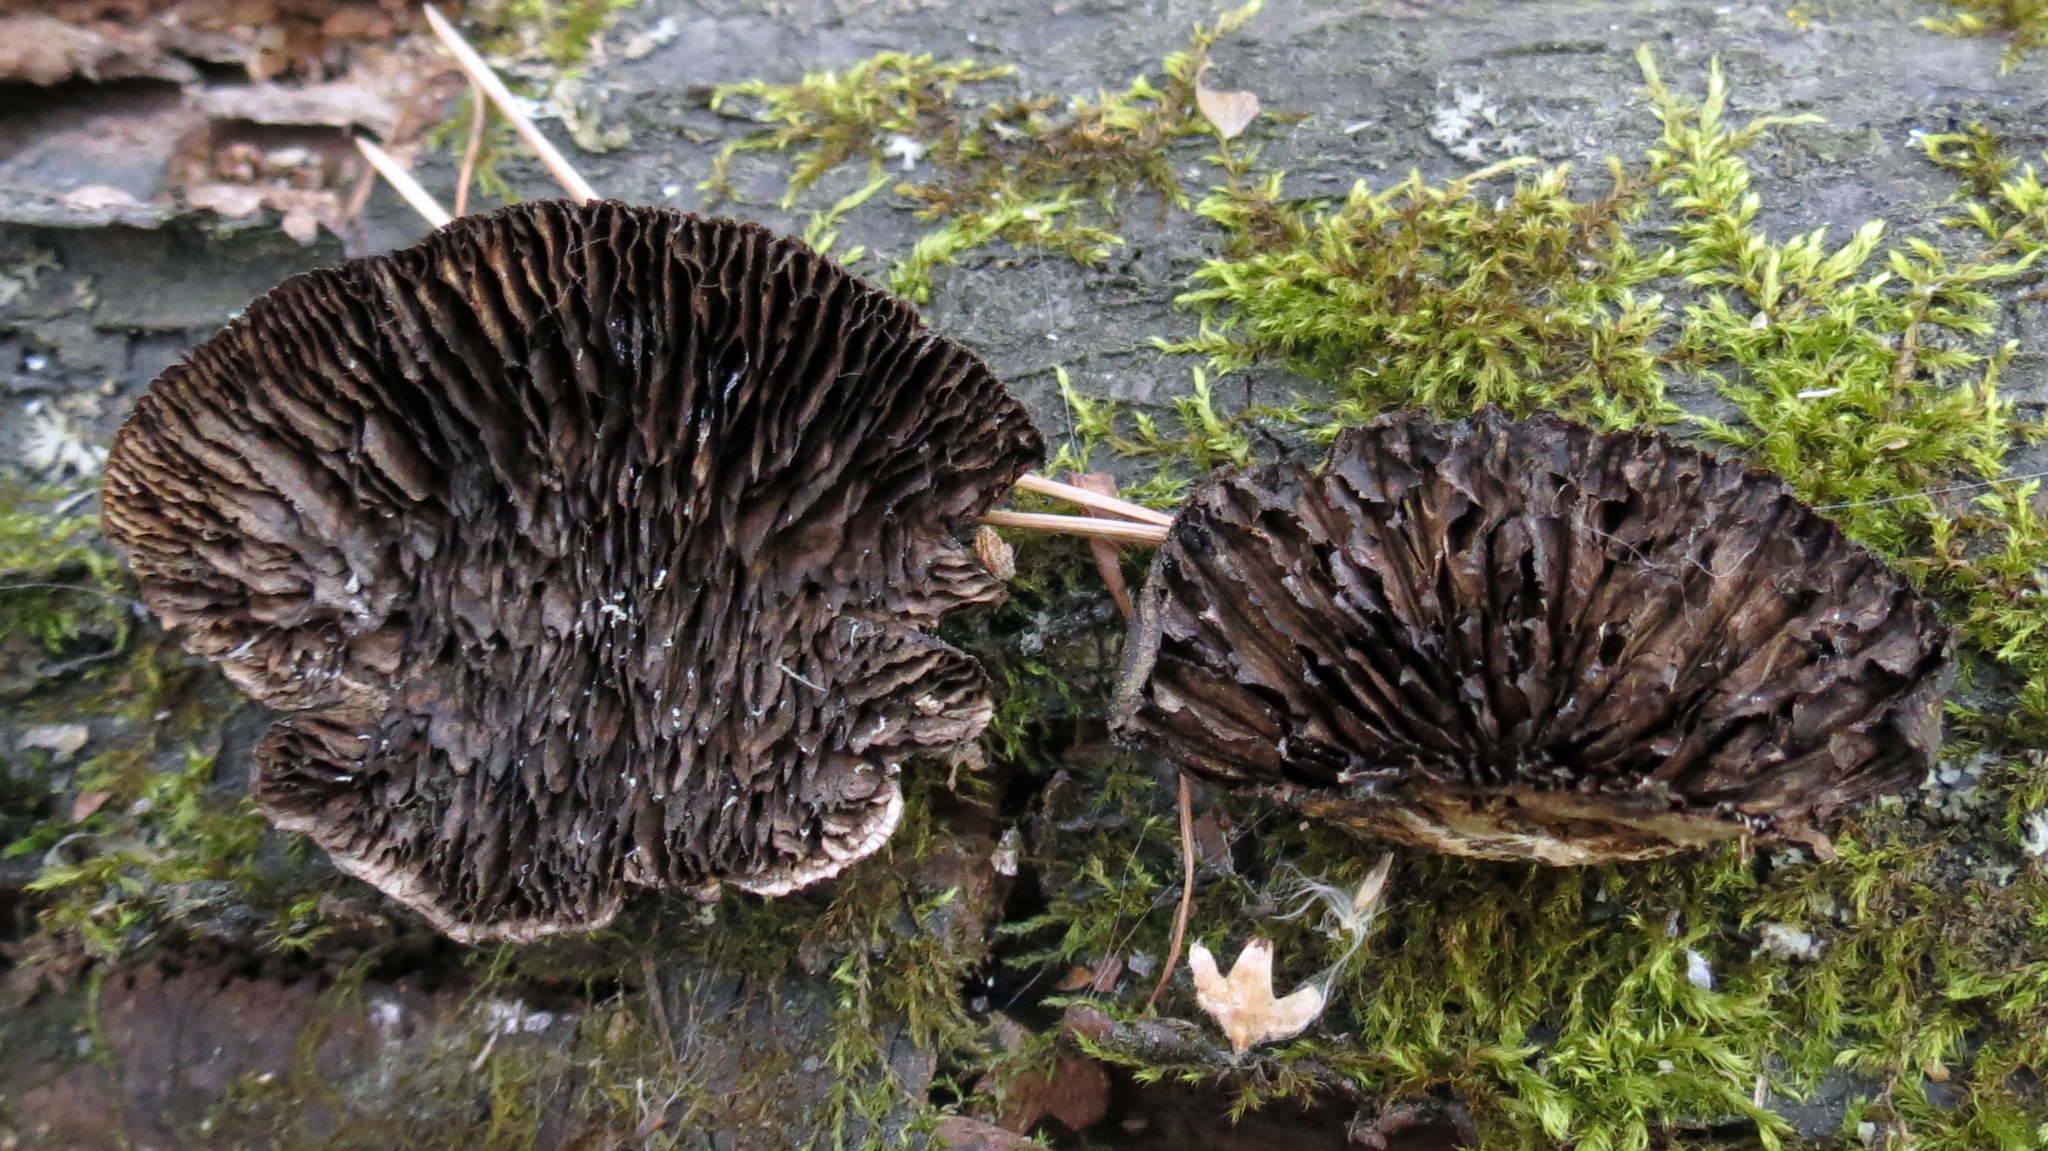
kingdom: Fungi
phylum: Basidiomycota
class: Agaricomycetes
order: Polyporales
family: Polyporaceae
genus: Podofomes
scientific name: Podofomes mollis
